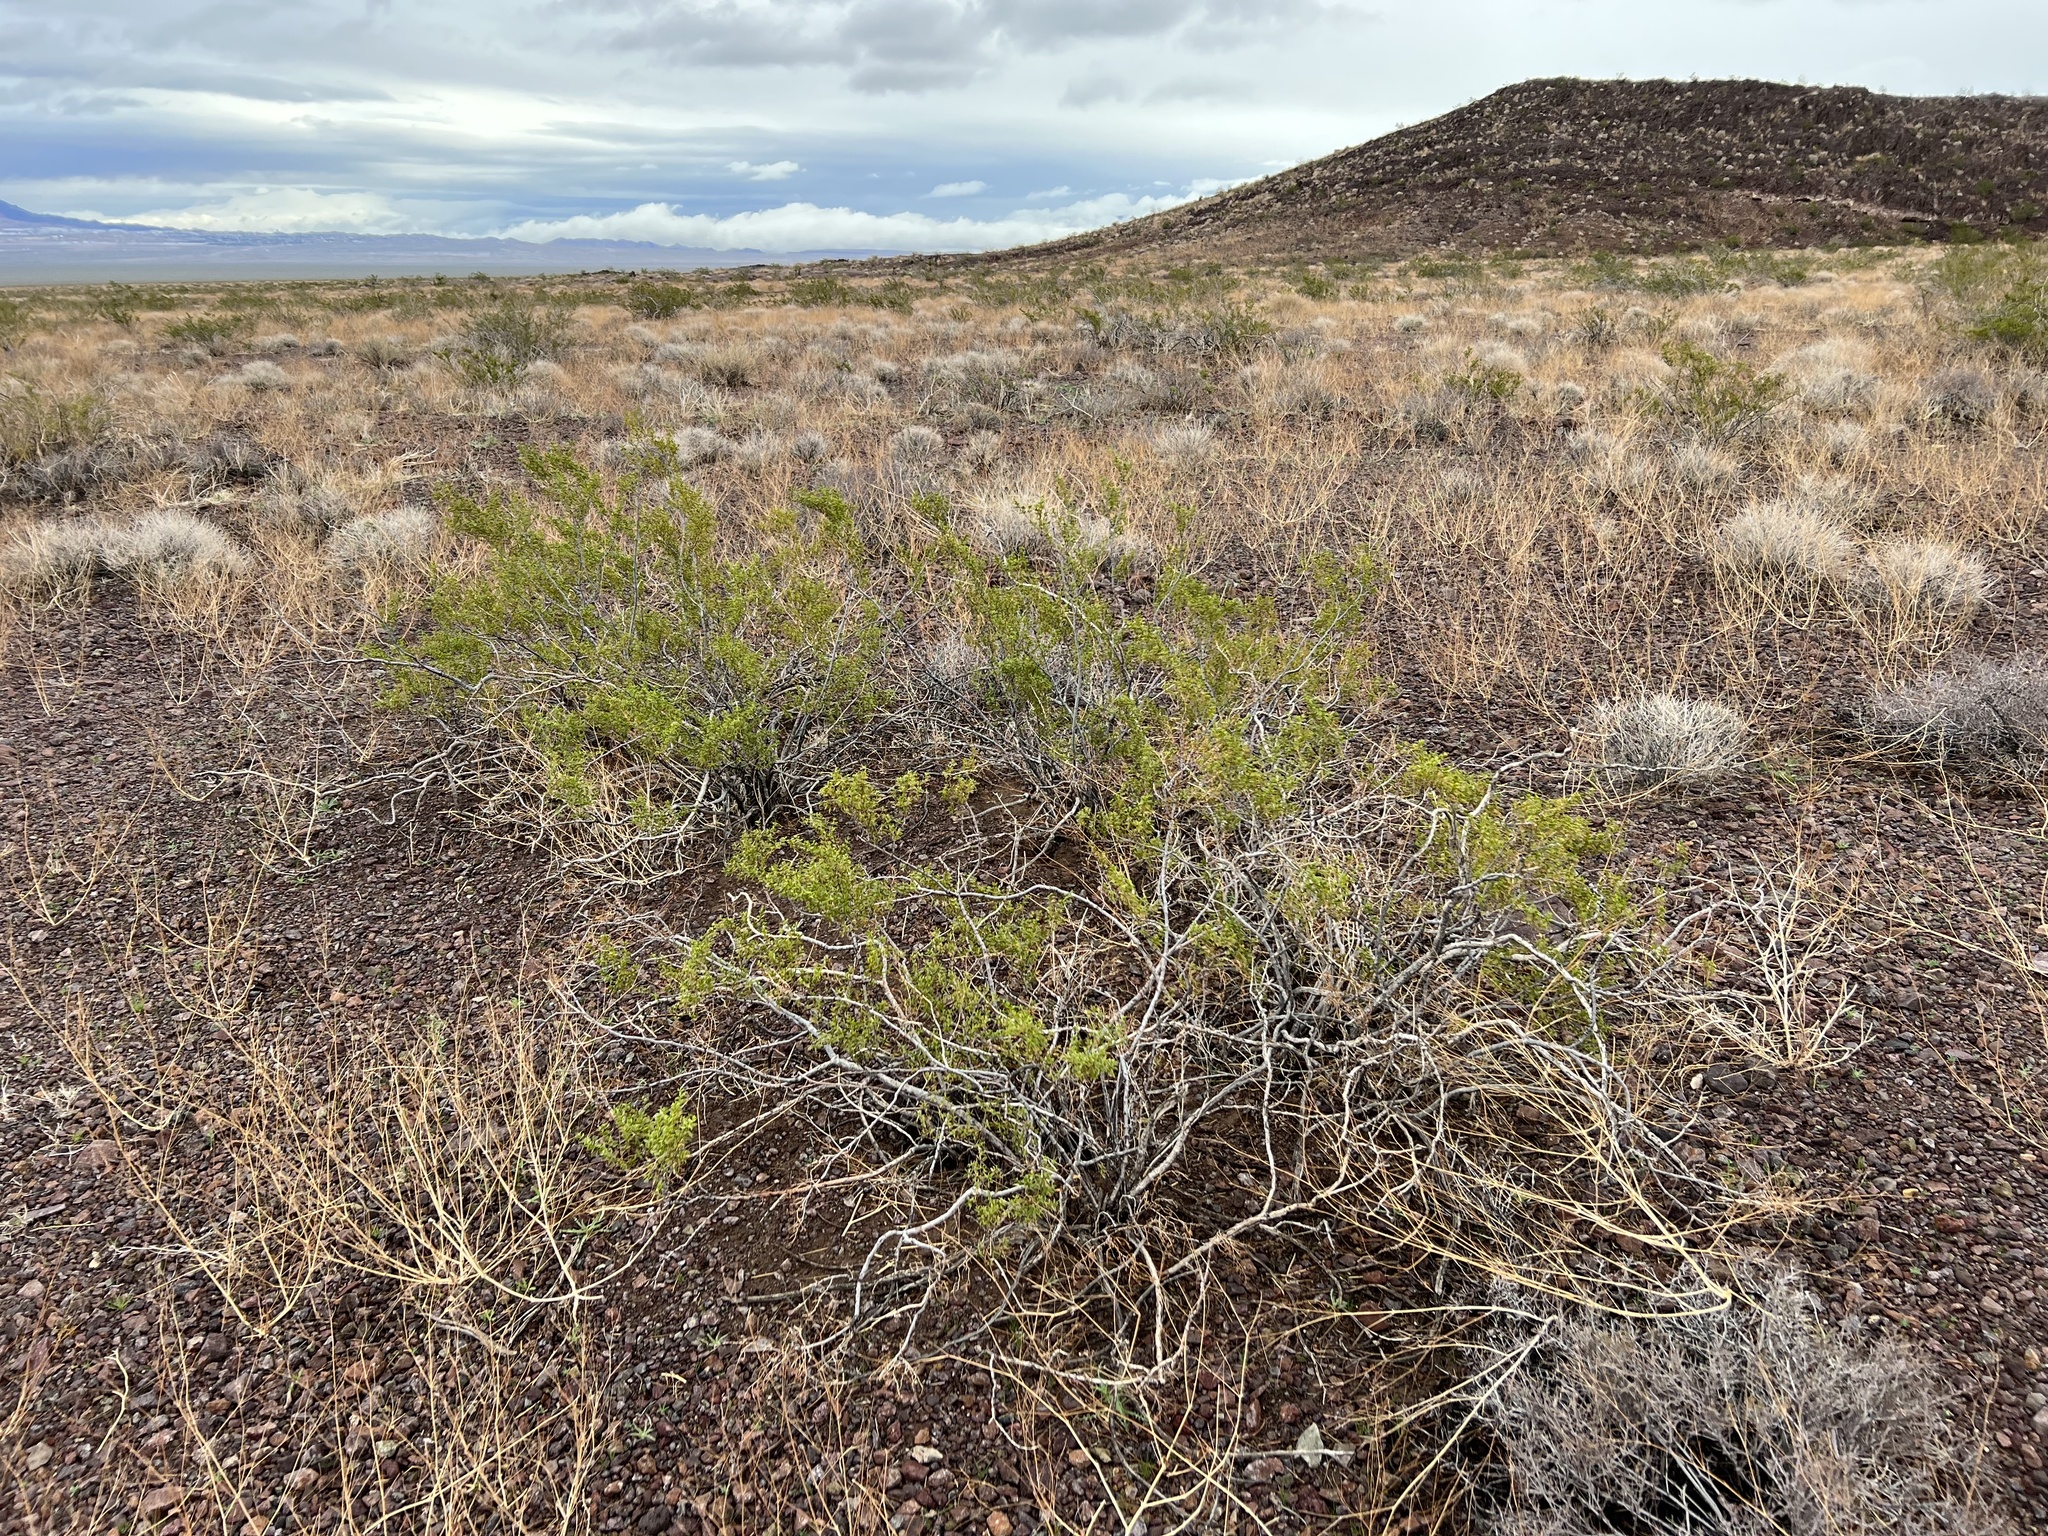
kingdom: Plantae
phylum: Tracheophyta
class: Magnoliopsida
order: Zygophyllales
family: Zygophyllaceae
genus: Larrea
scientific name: Larrea tridentata
